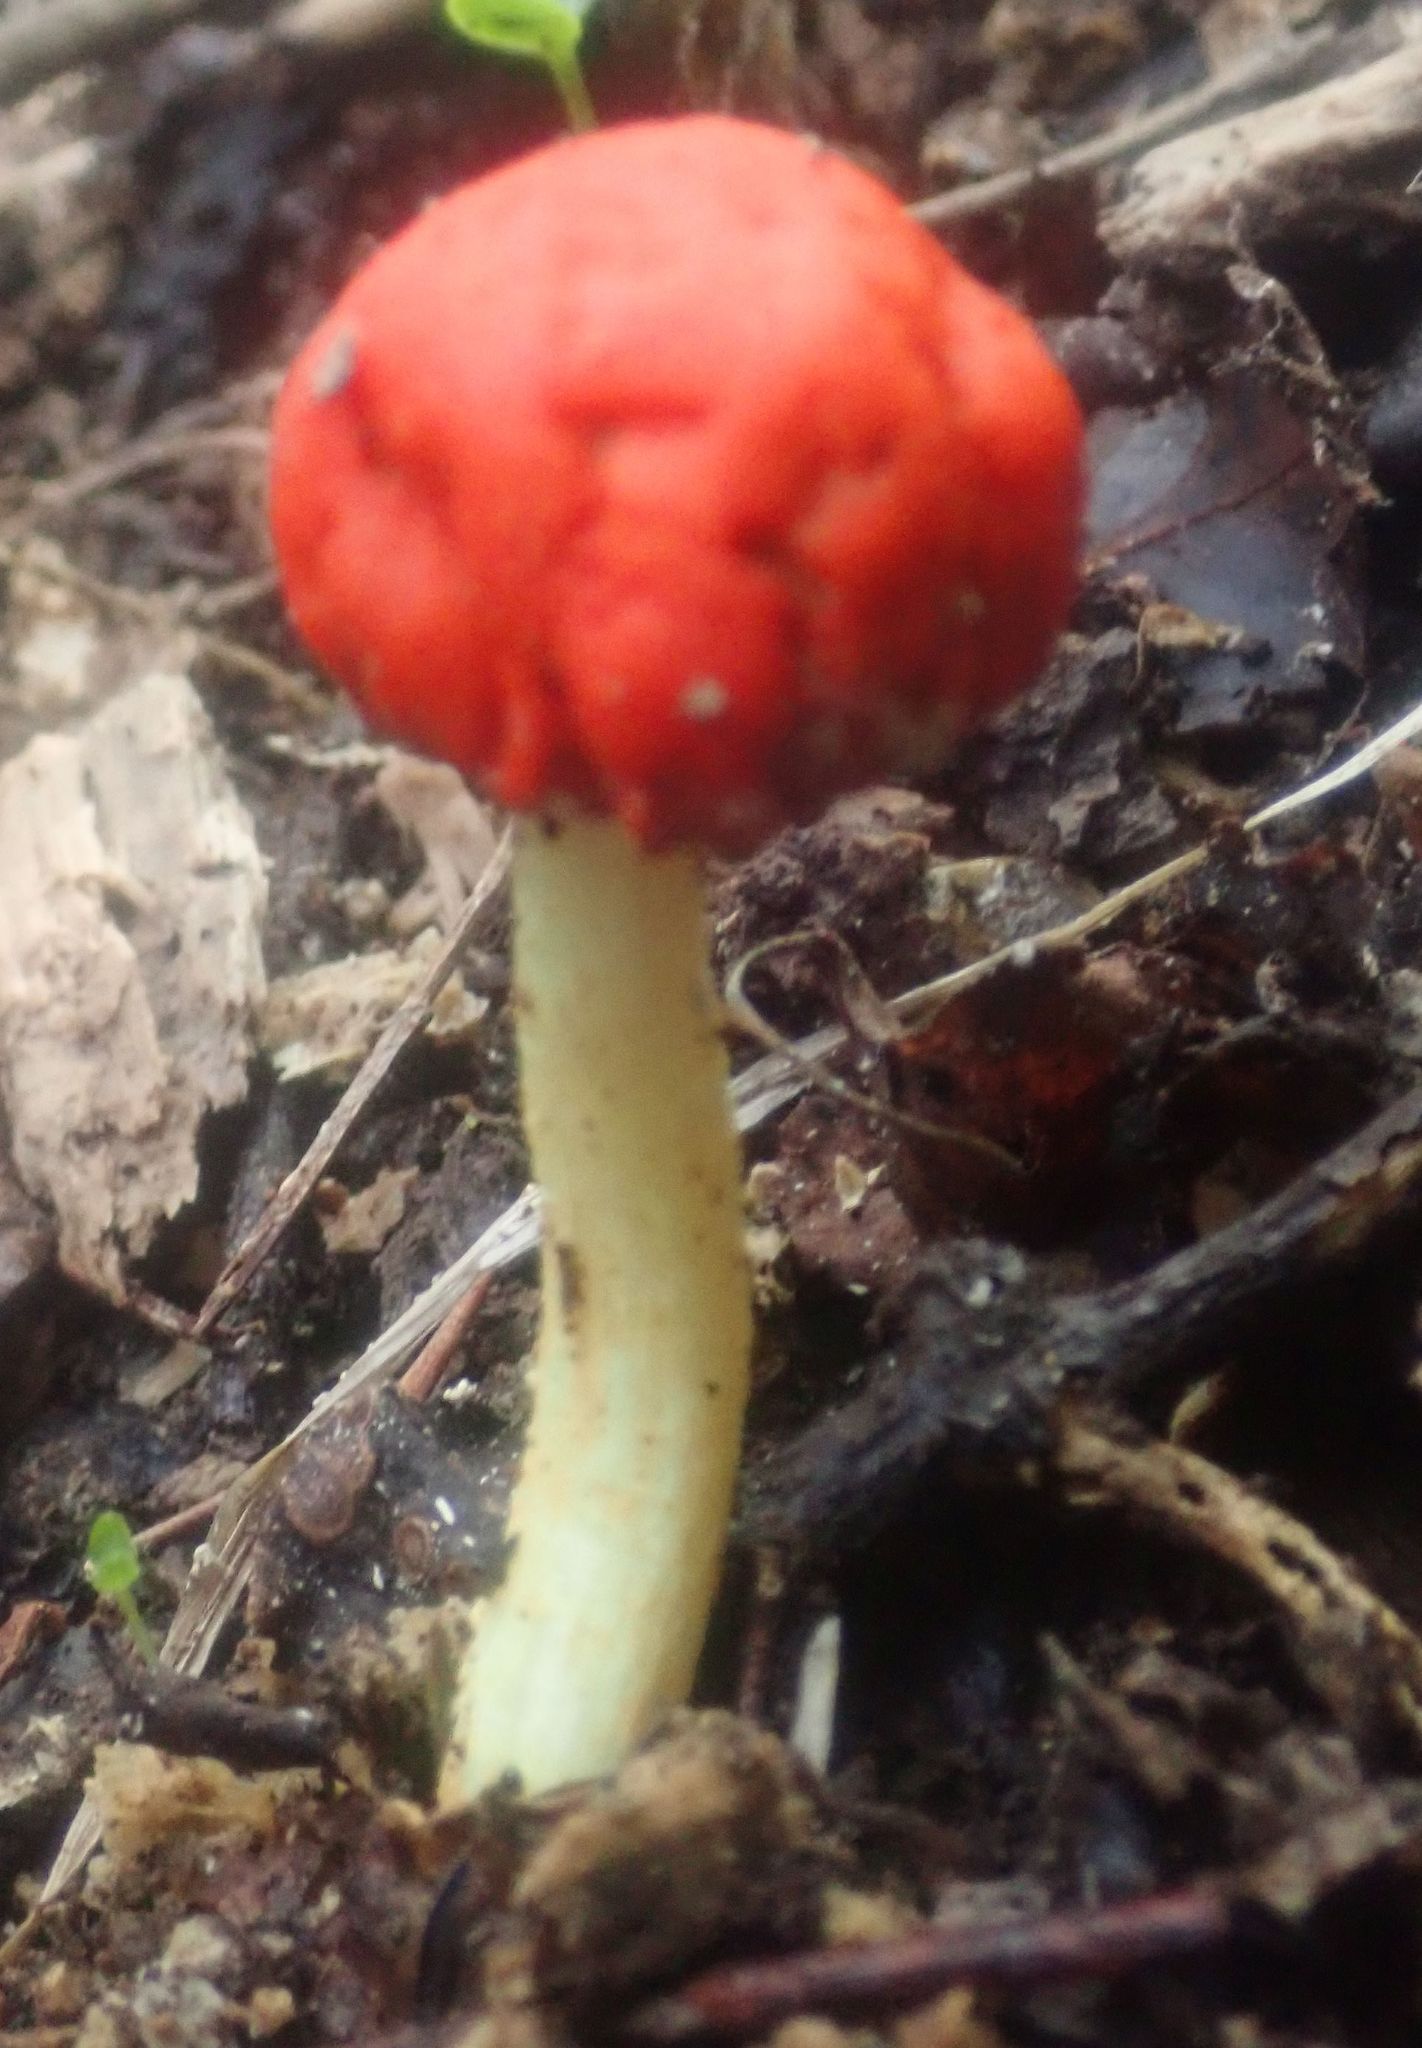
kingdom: Fungi
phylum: Basidiomycota
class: Agaricomycetes
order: Agaricales
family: Strophariaceae
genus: Leratiomyces
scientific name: Leratiomyces erythrocephalus
